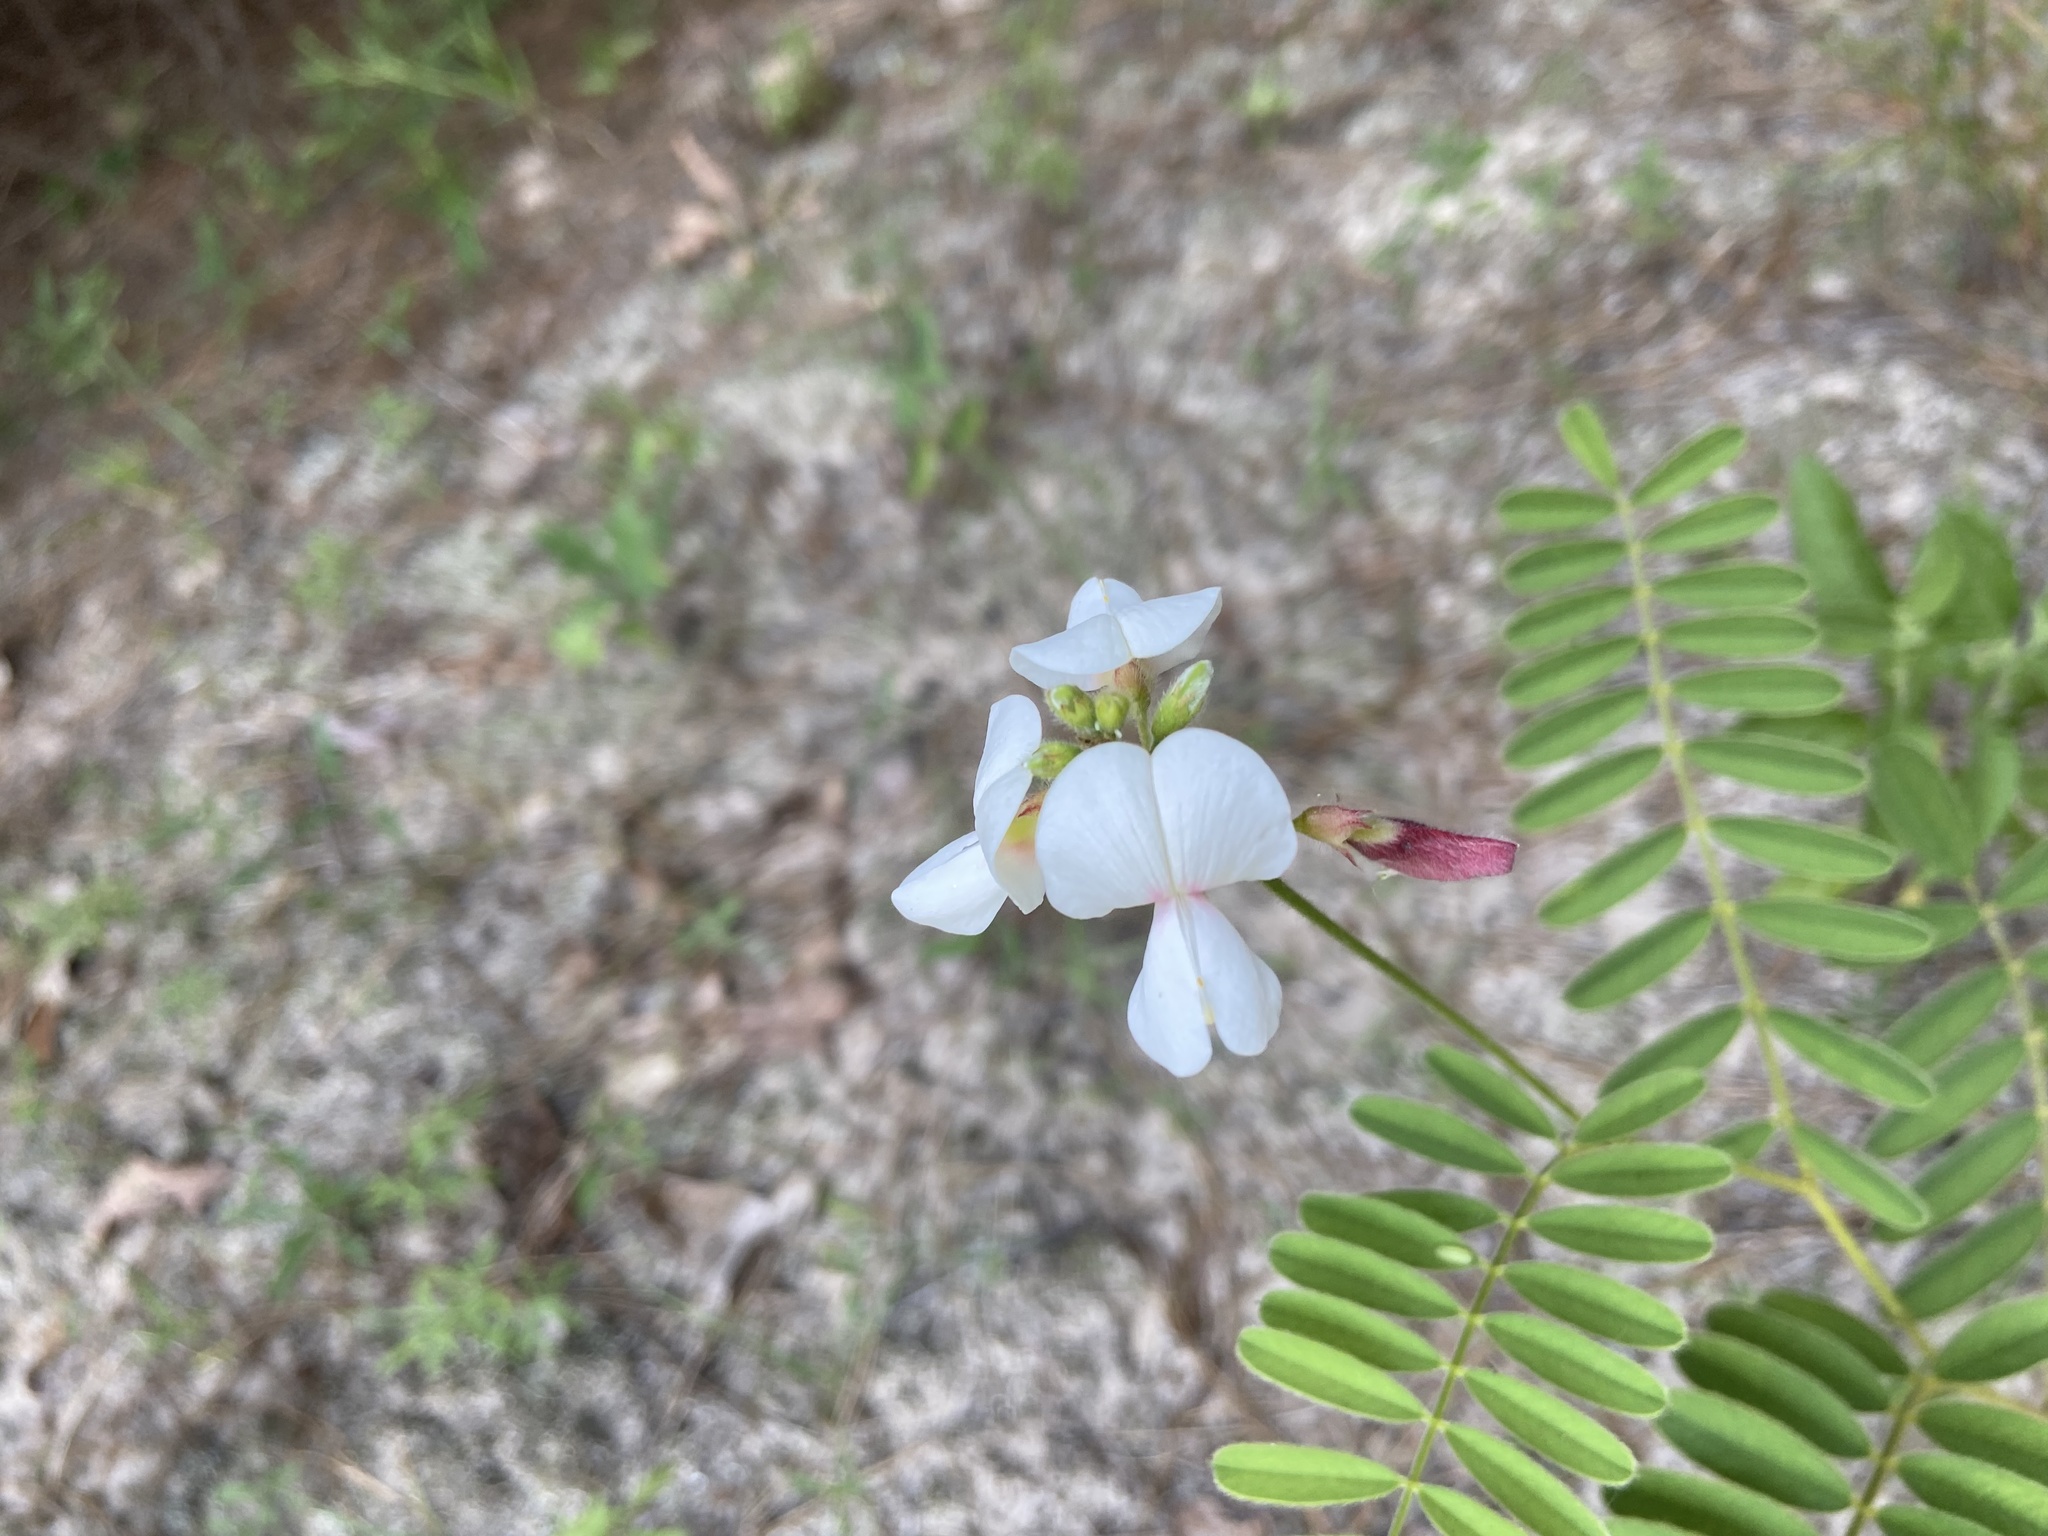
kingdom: Plantae
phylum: Tracheophyta
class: Magnoliopsida
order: Fabales
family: Fabaceae
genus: Tephrosia
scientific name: Tephrosia onobrychoides
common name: Multi-bloom hoary-pea
